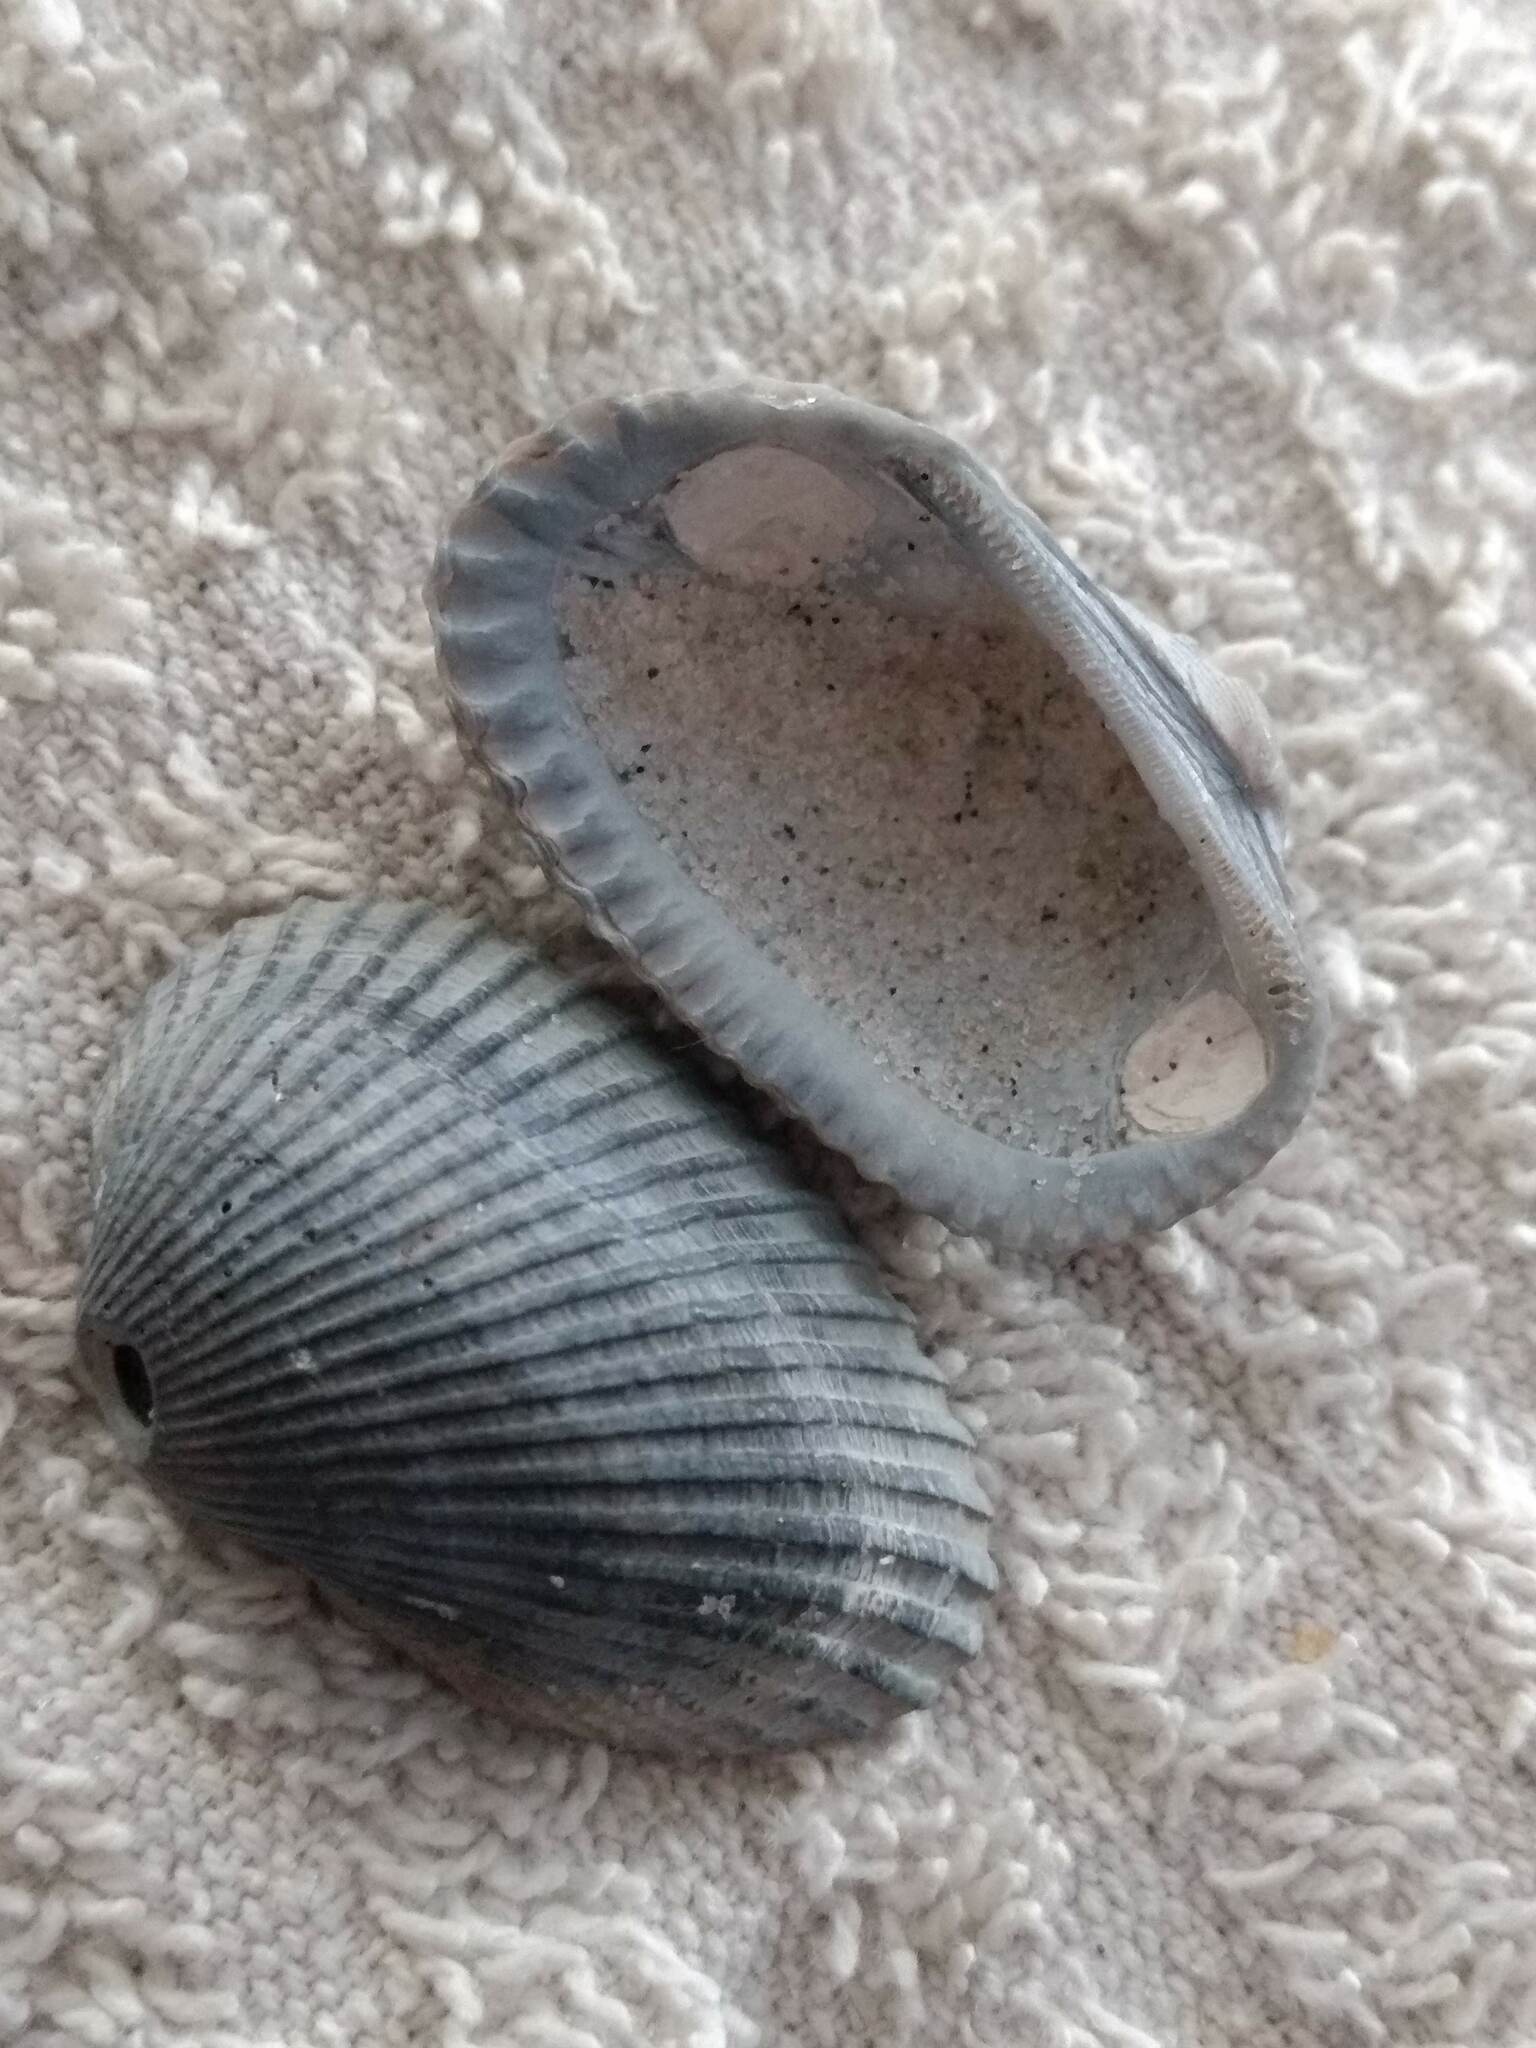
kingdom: Animalia
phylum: Mollusca
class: Bivalvia
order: Arcida
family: Arcidae
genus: Anadara
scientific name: Anadara transversa
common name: Transverse ark
